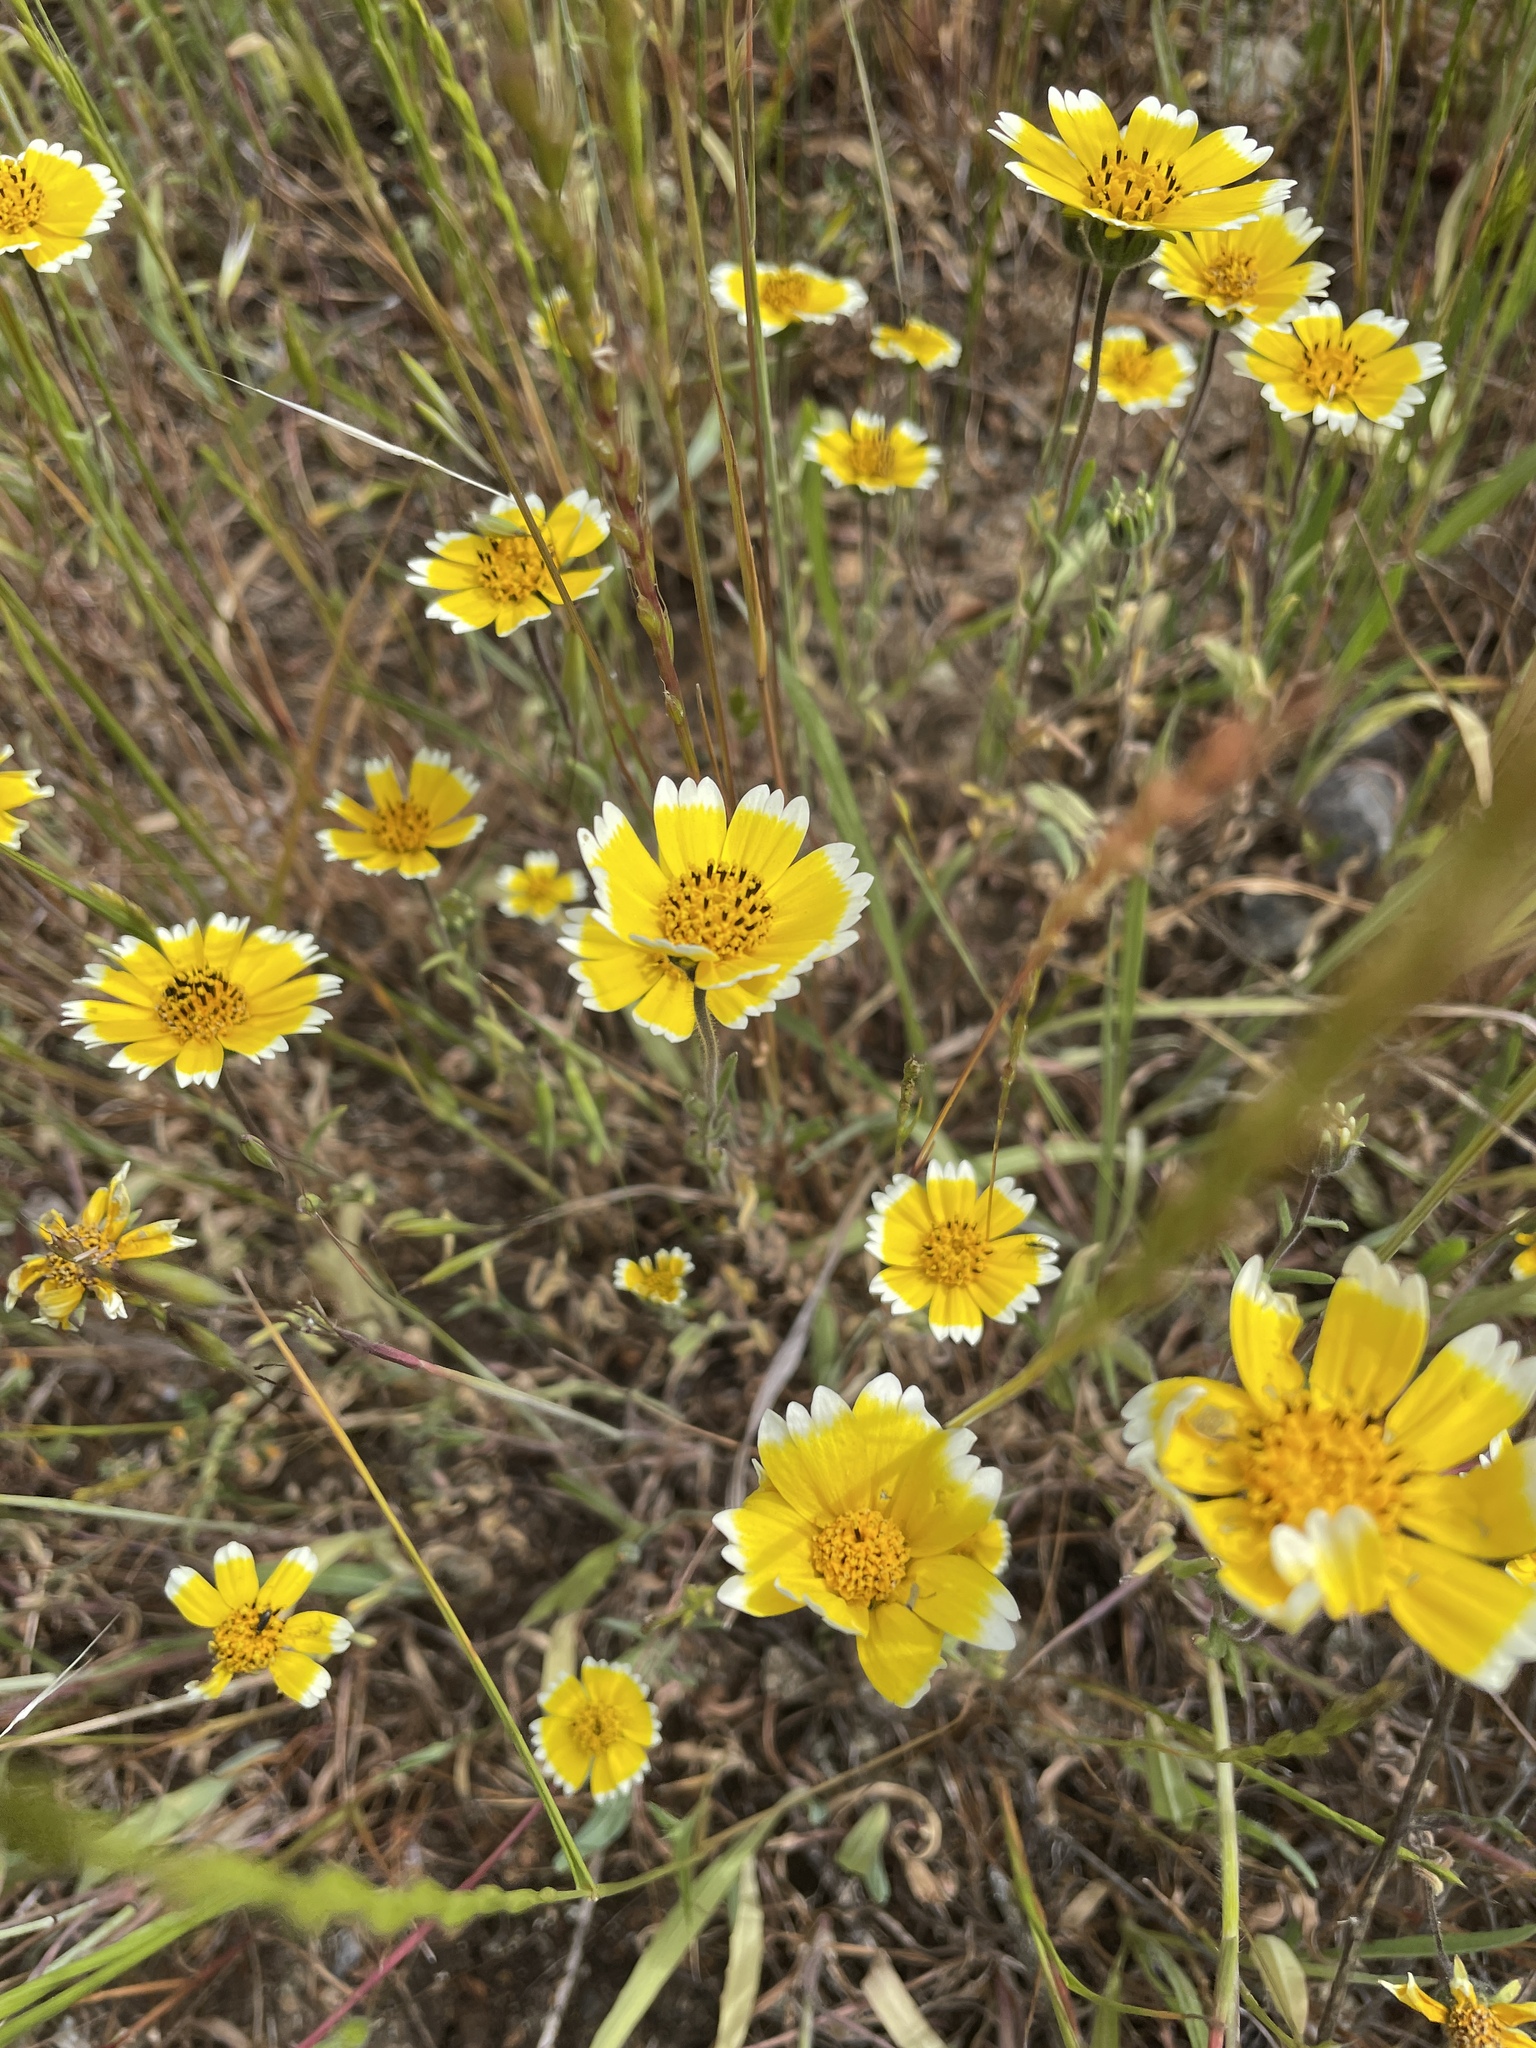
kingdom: Plantae
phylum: Tracheophyta
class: Magnoliopsida
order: Asterales
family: Asteraceae
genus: Layia
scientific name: Layia platyglossa
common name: Tidy-tips
